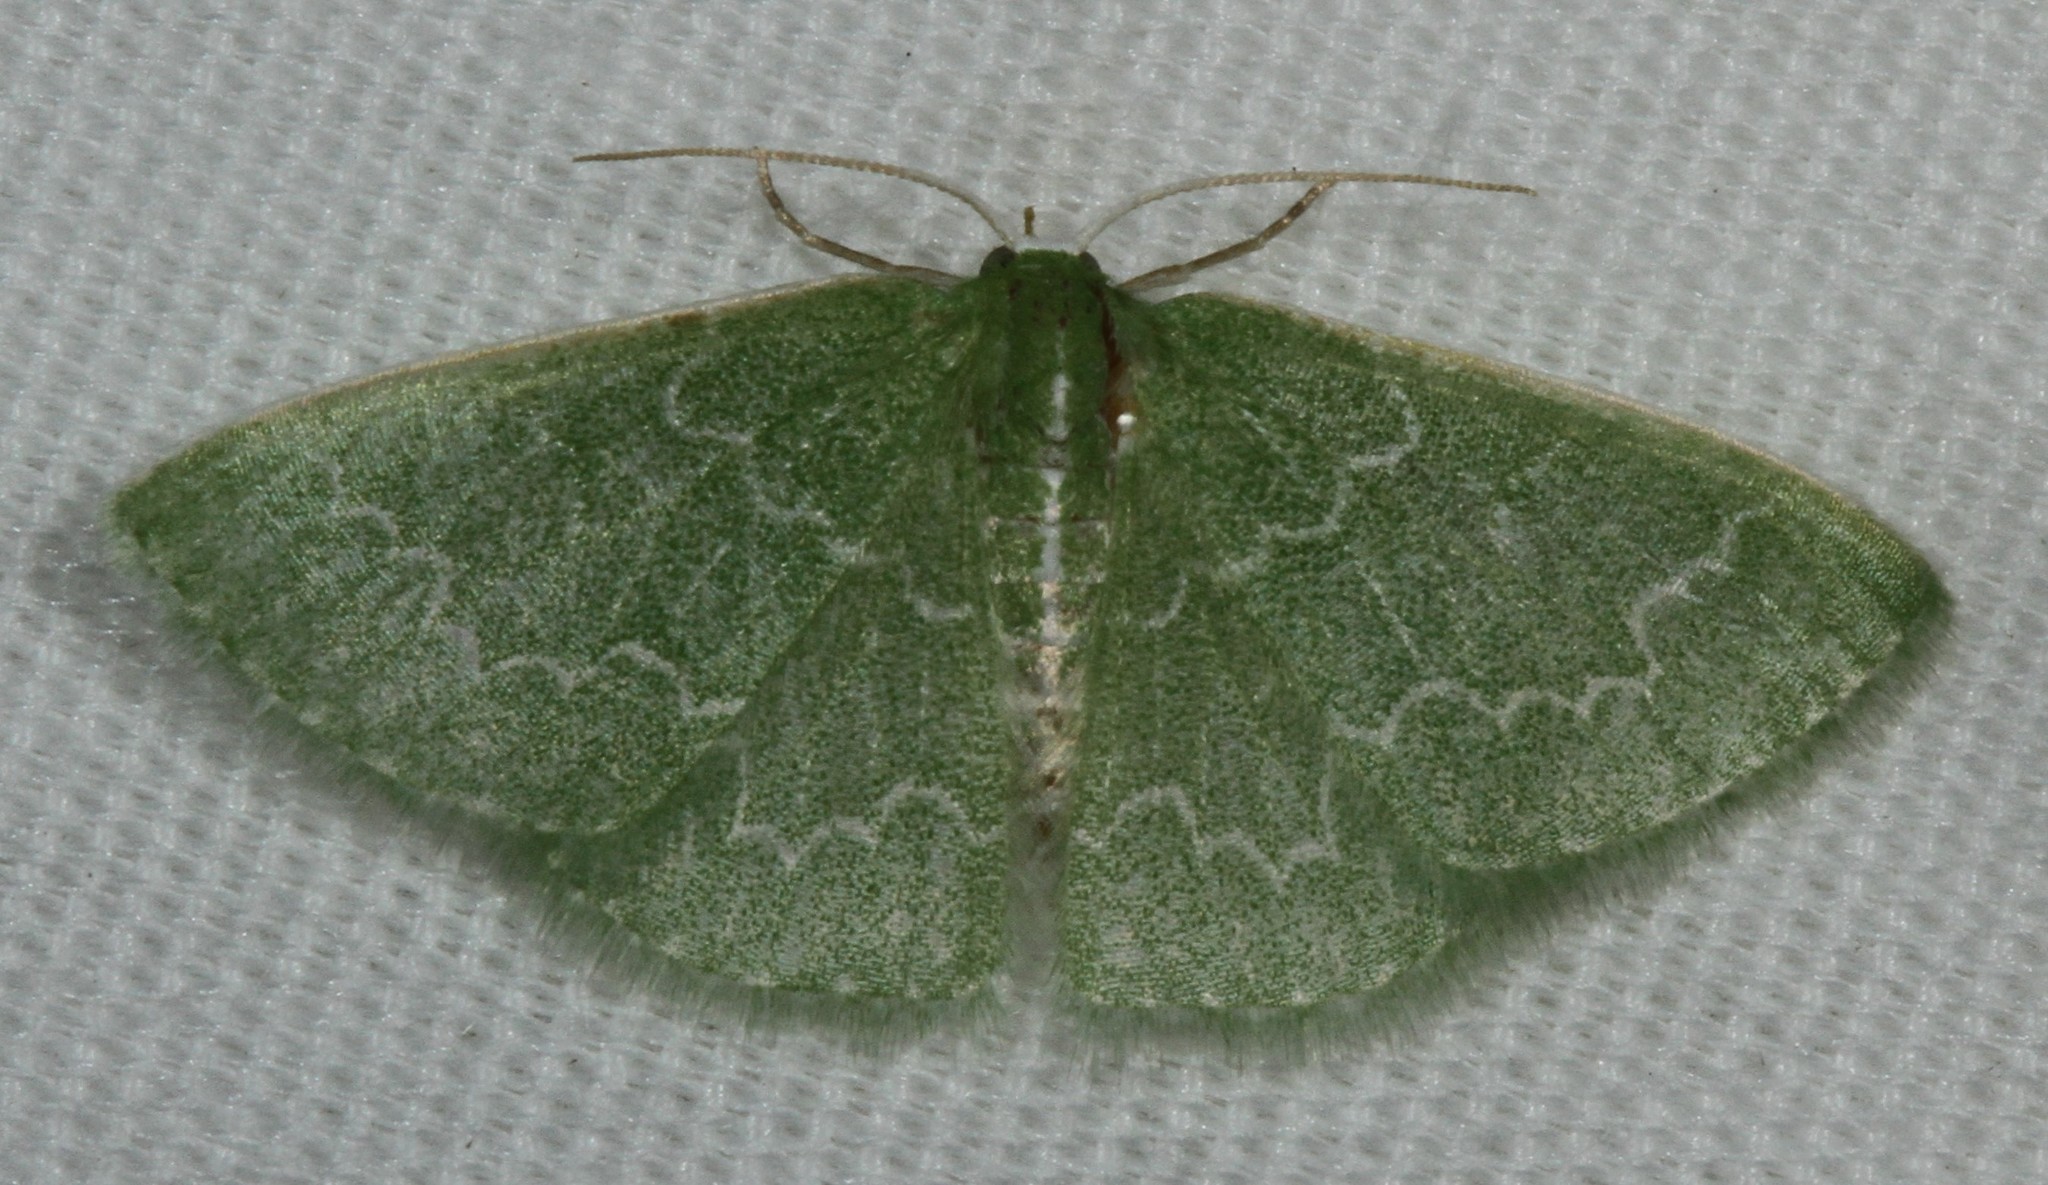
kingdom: Animalia
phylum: Arthropoda
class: Insecta
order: Lepidoptera
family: Geometridae
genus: Synchlora
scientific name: Synchlora frondaria
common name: Southern emerald
